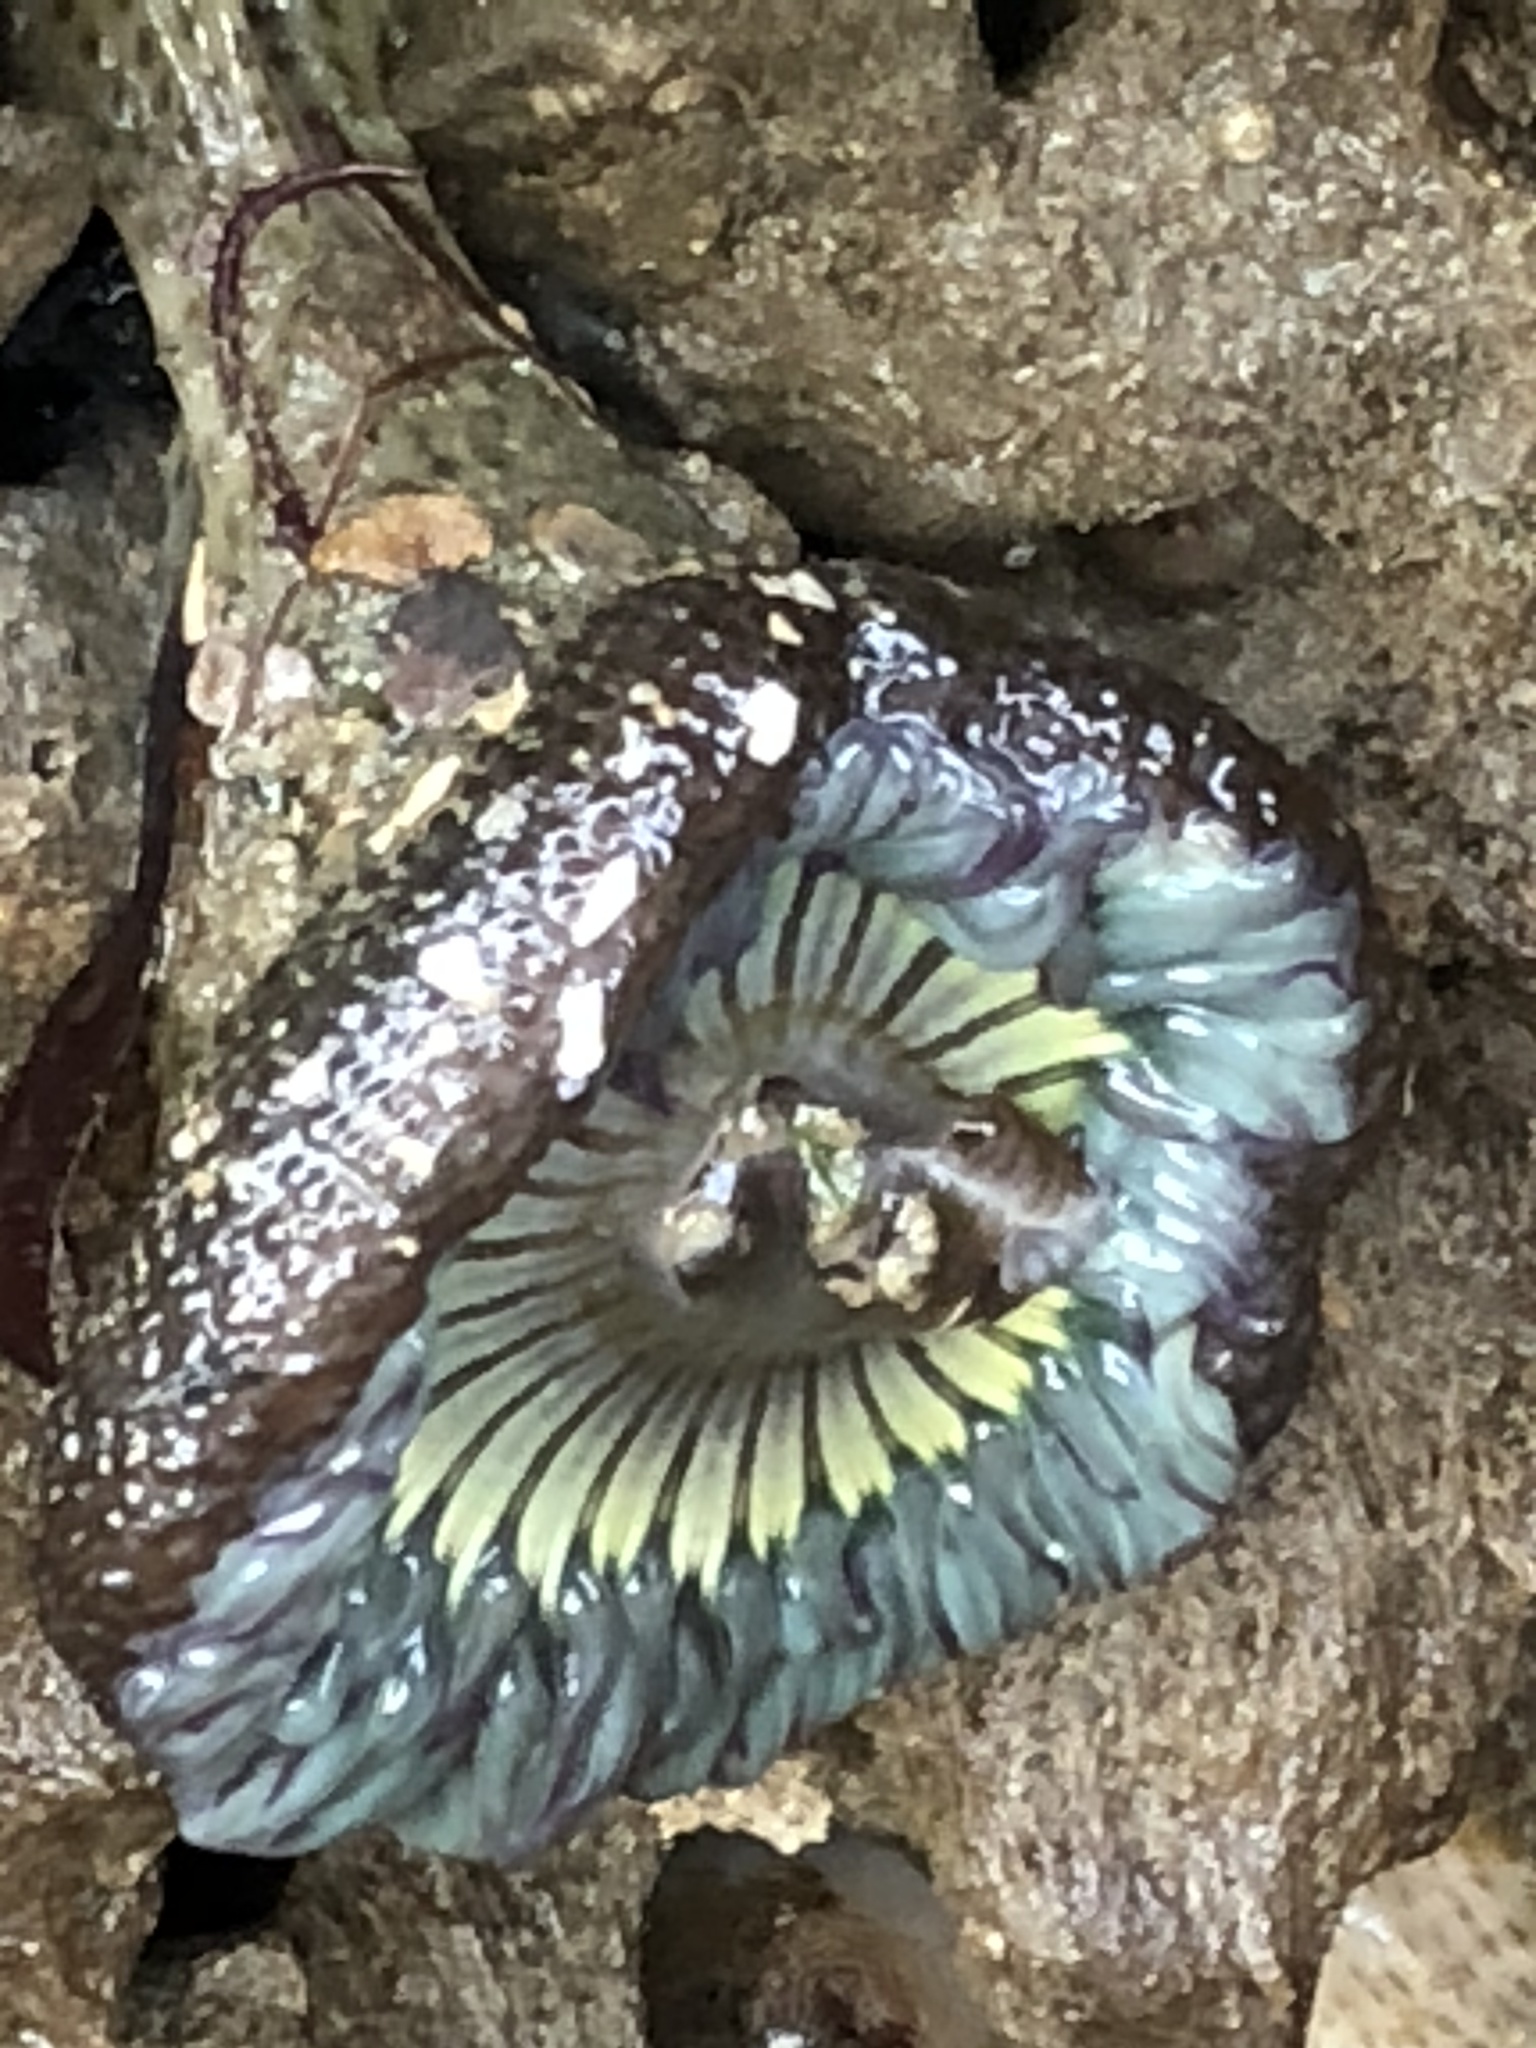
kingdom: Animalia
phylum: Cnidaria
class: Anthozoa
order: Actiniaria
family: Actiniidae
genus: Anthopleura
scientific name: Anthopleura sola
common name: Sun anemone
